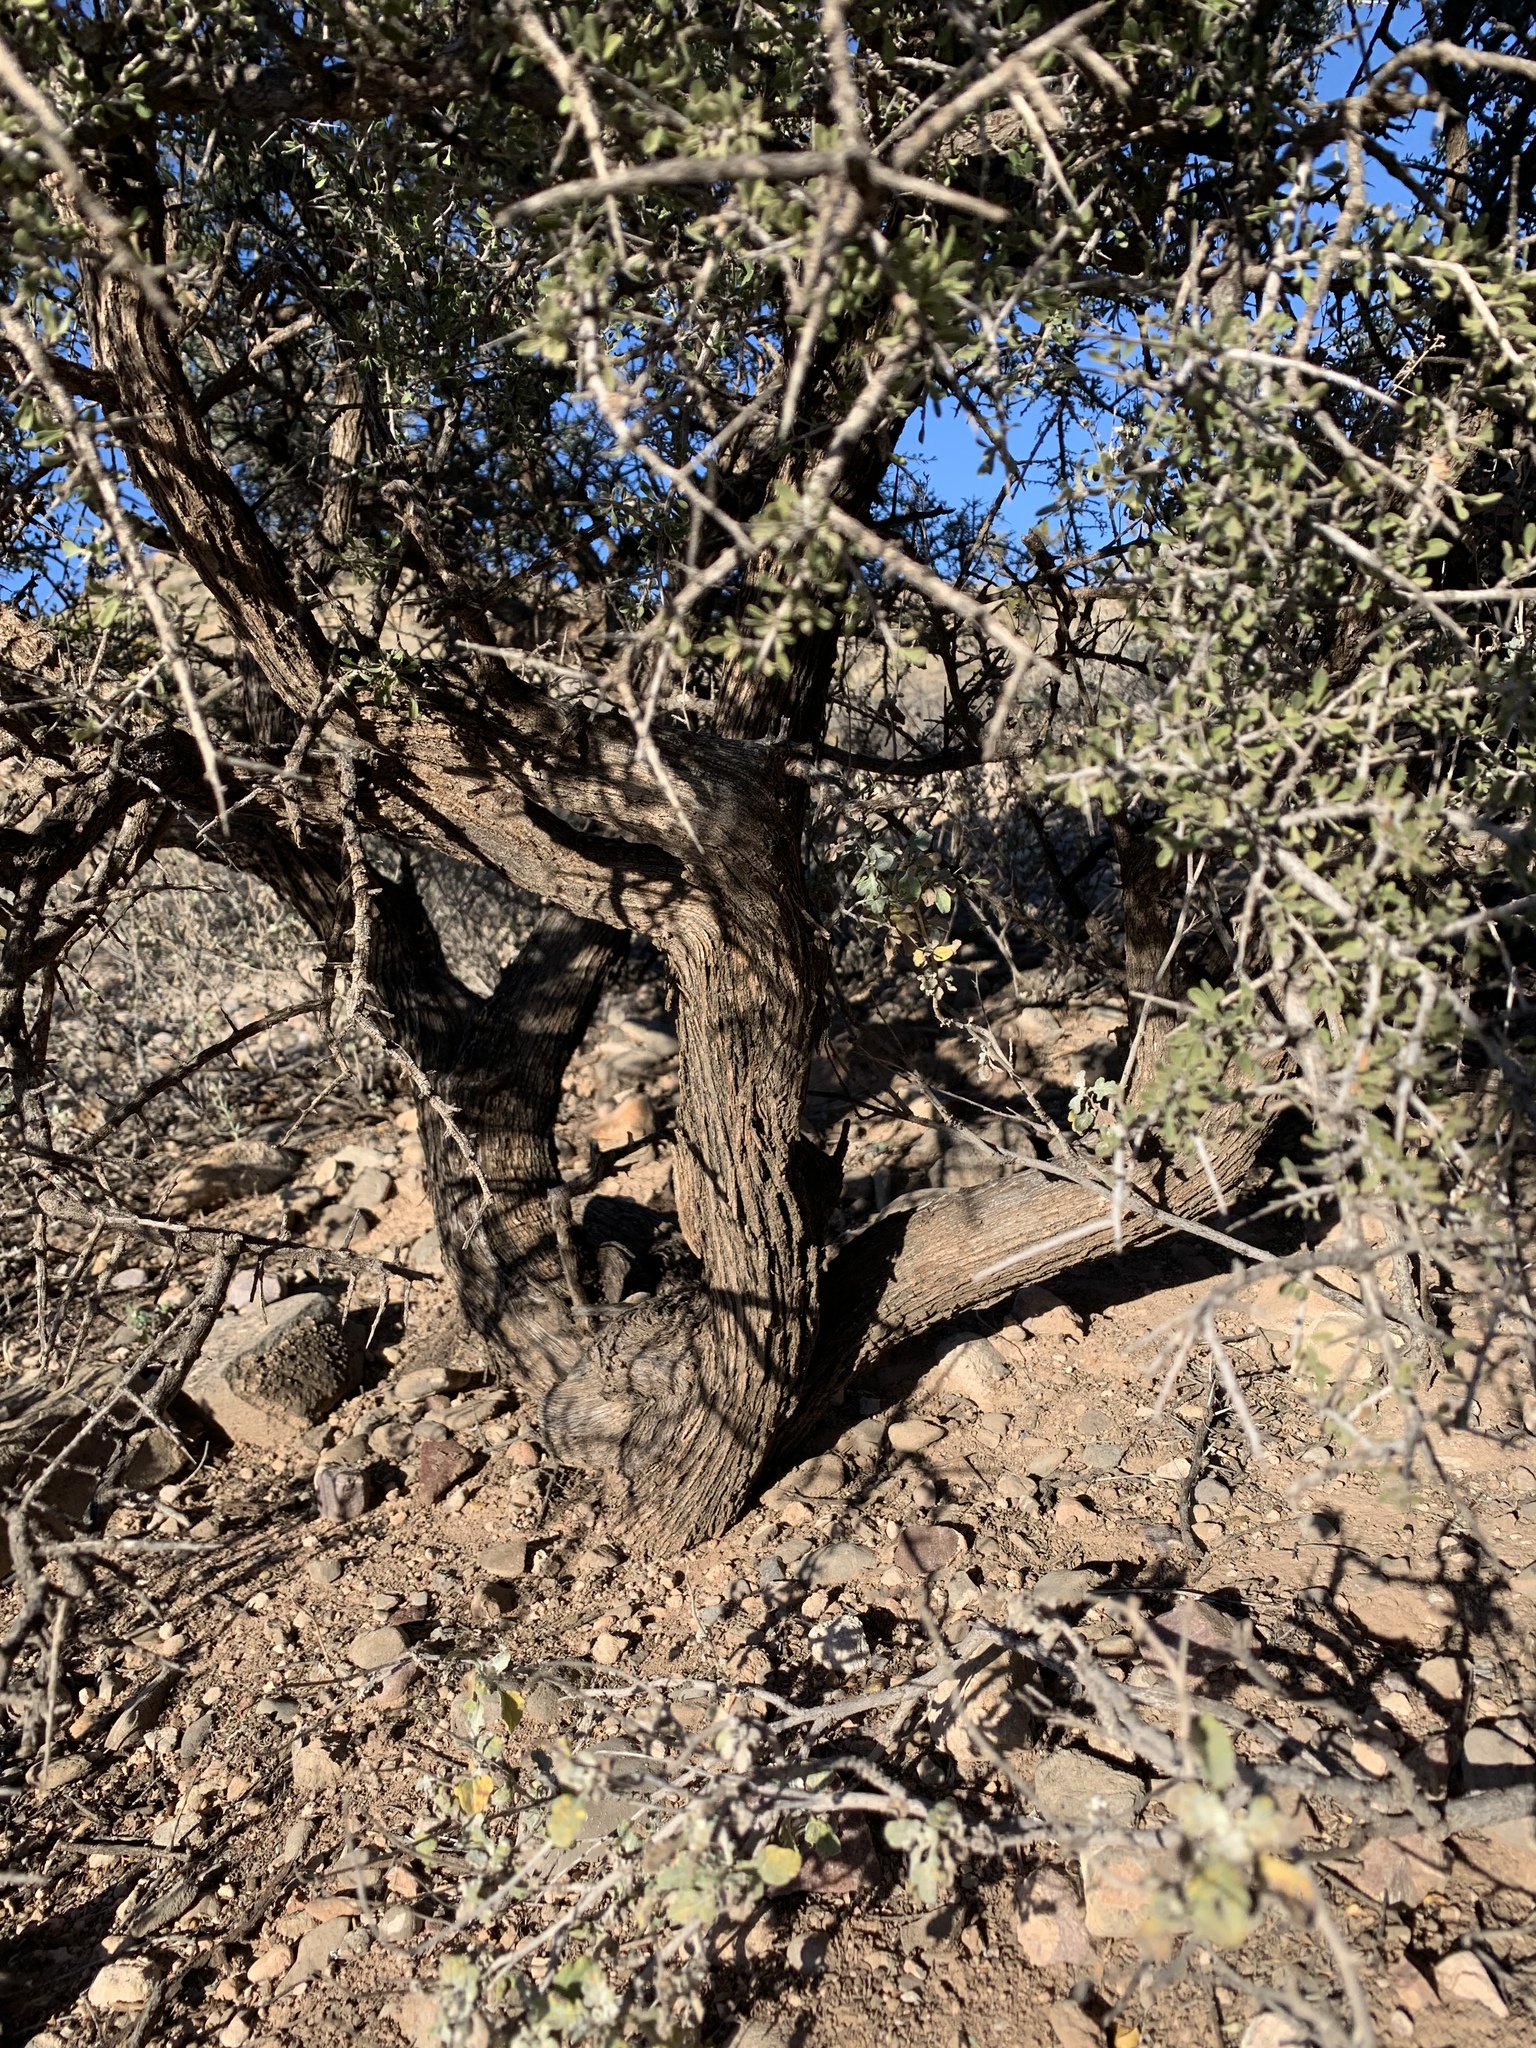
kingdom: Plantae
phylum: Tracheophyta
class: Magnoliopsida
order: Rosales
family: Rhamnaceae
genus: Condalia
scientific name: Condalia warnockii
